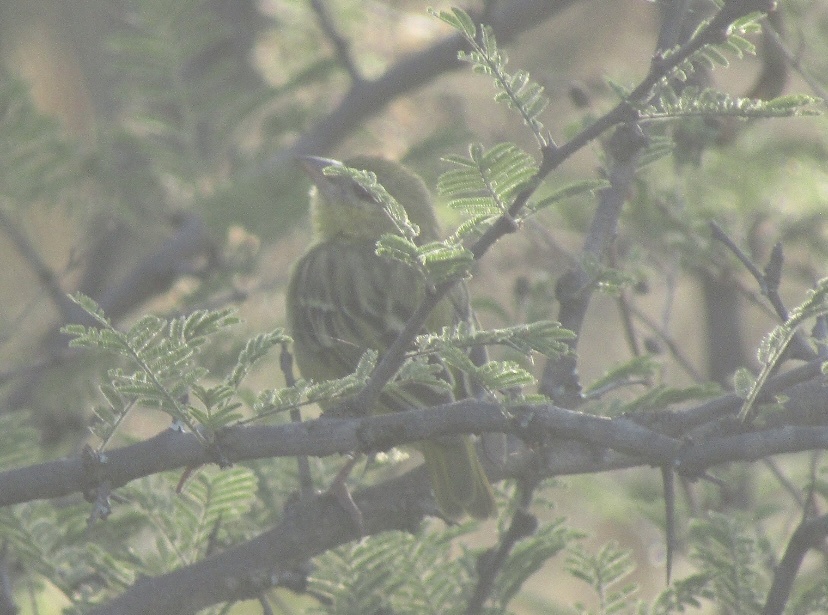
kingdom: Animalia
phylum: Chordata
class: Aves
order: Passeriformes
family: Ploceidae
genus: Ploceus
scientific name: Ploceus velatus
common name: Southern masked weaver
